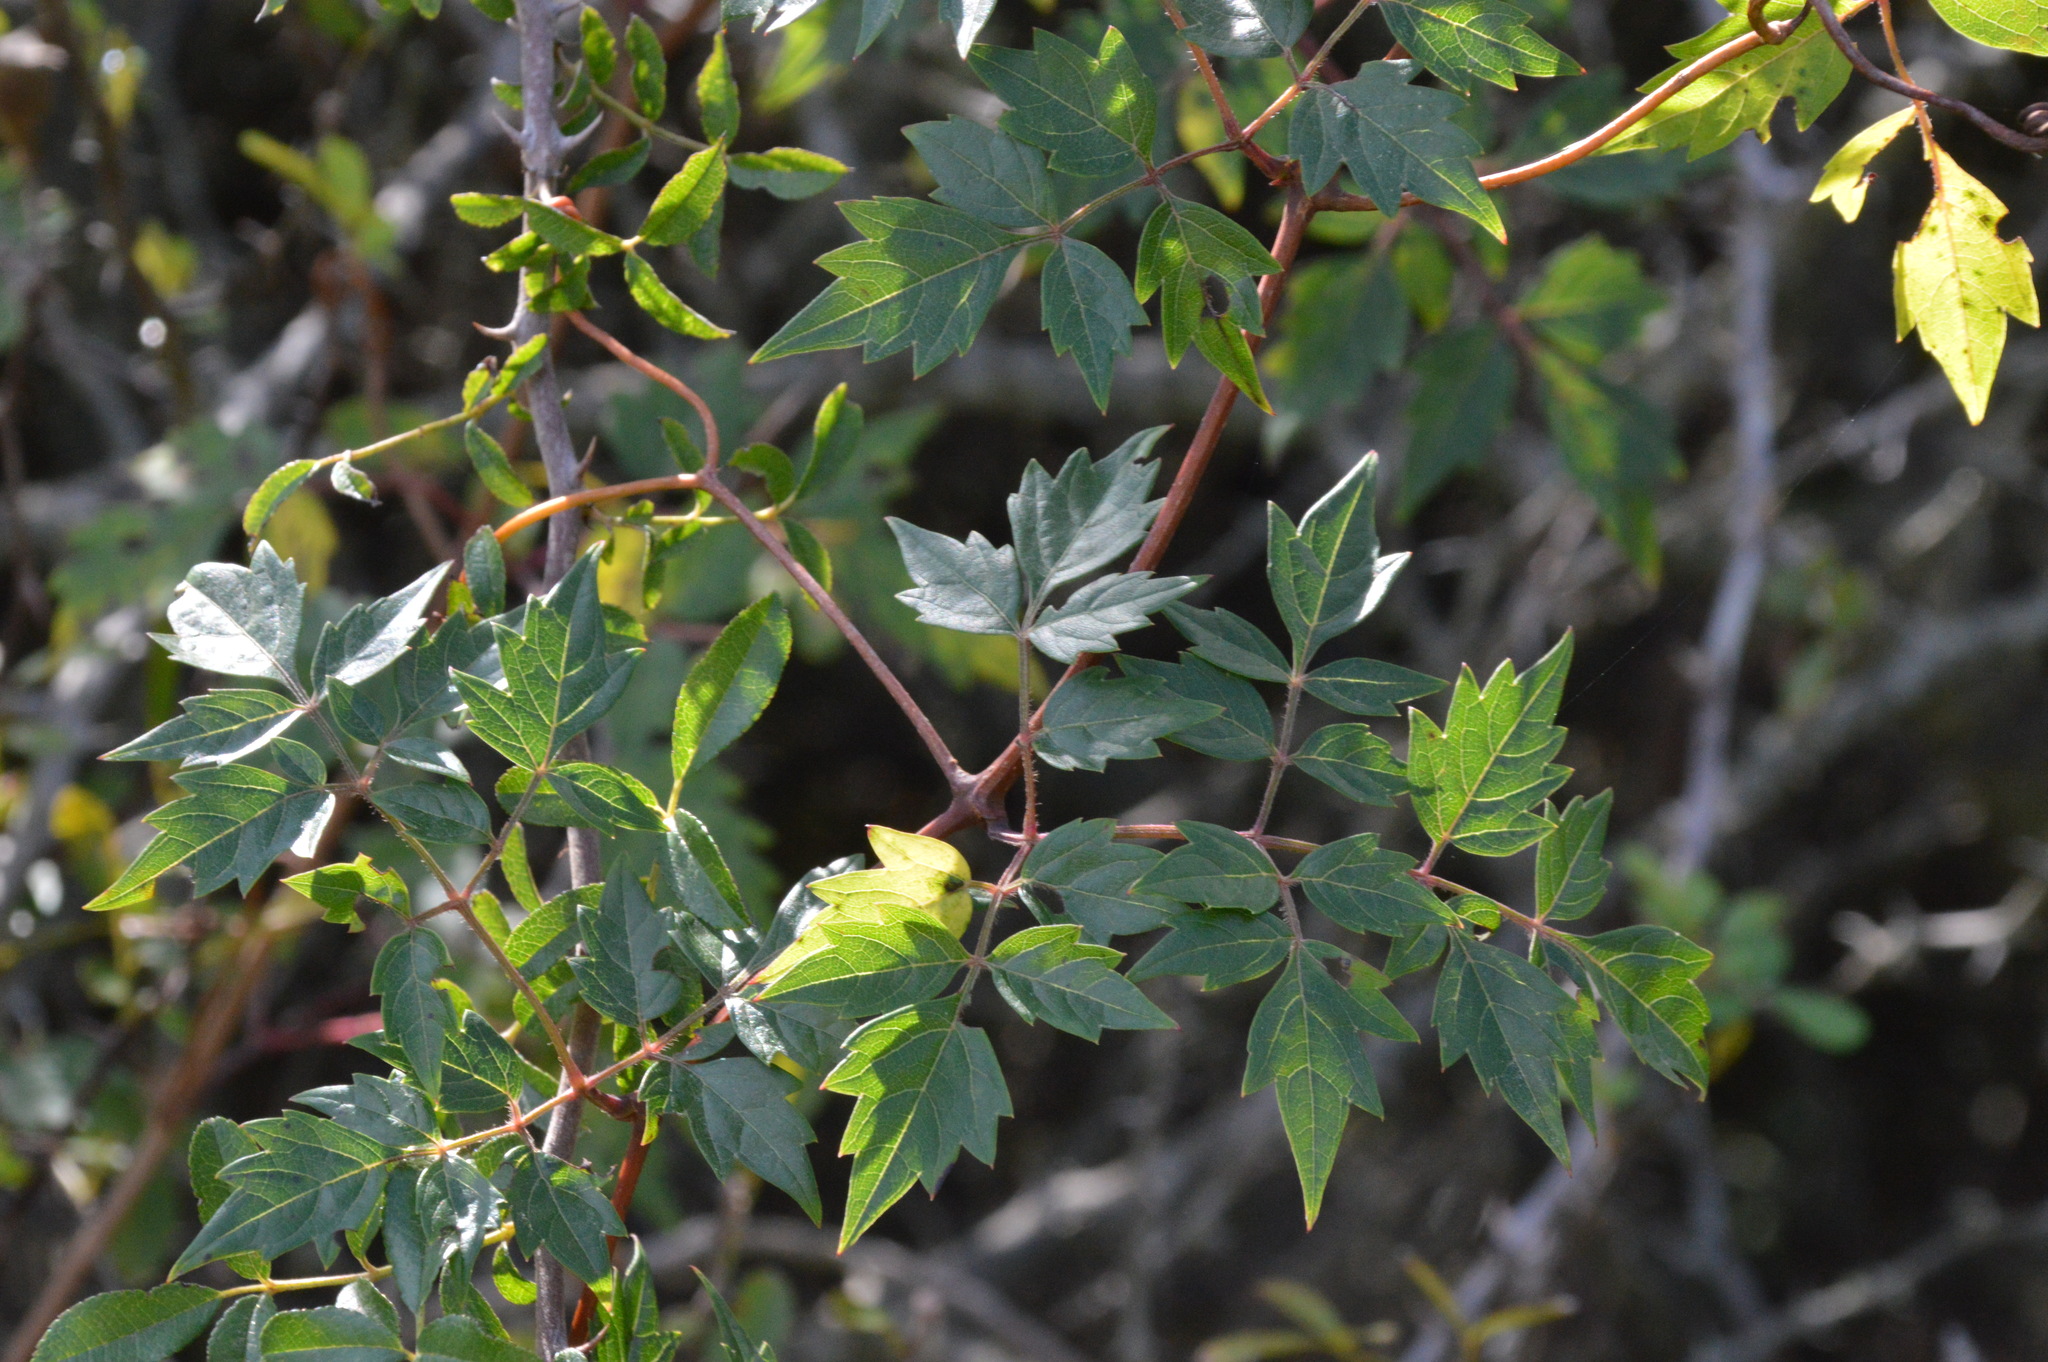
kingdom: Plantae
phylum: Tracheophyta
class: Magnoliopsida
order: Vitales
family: Vitaceae
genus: Nekemias
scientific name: Nekemias arborea
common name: Peppervine
